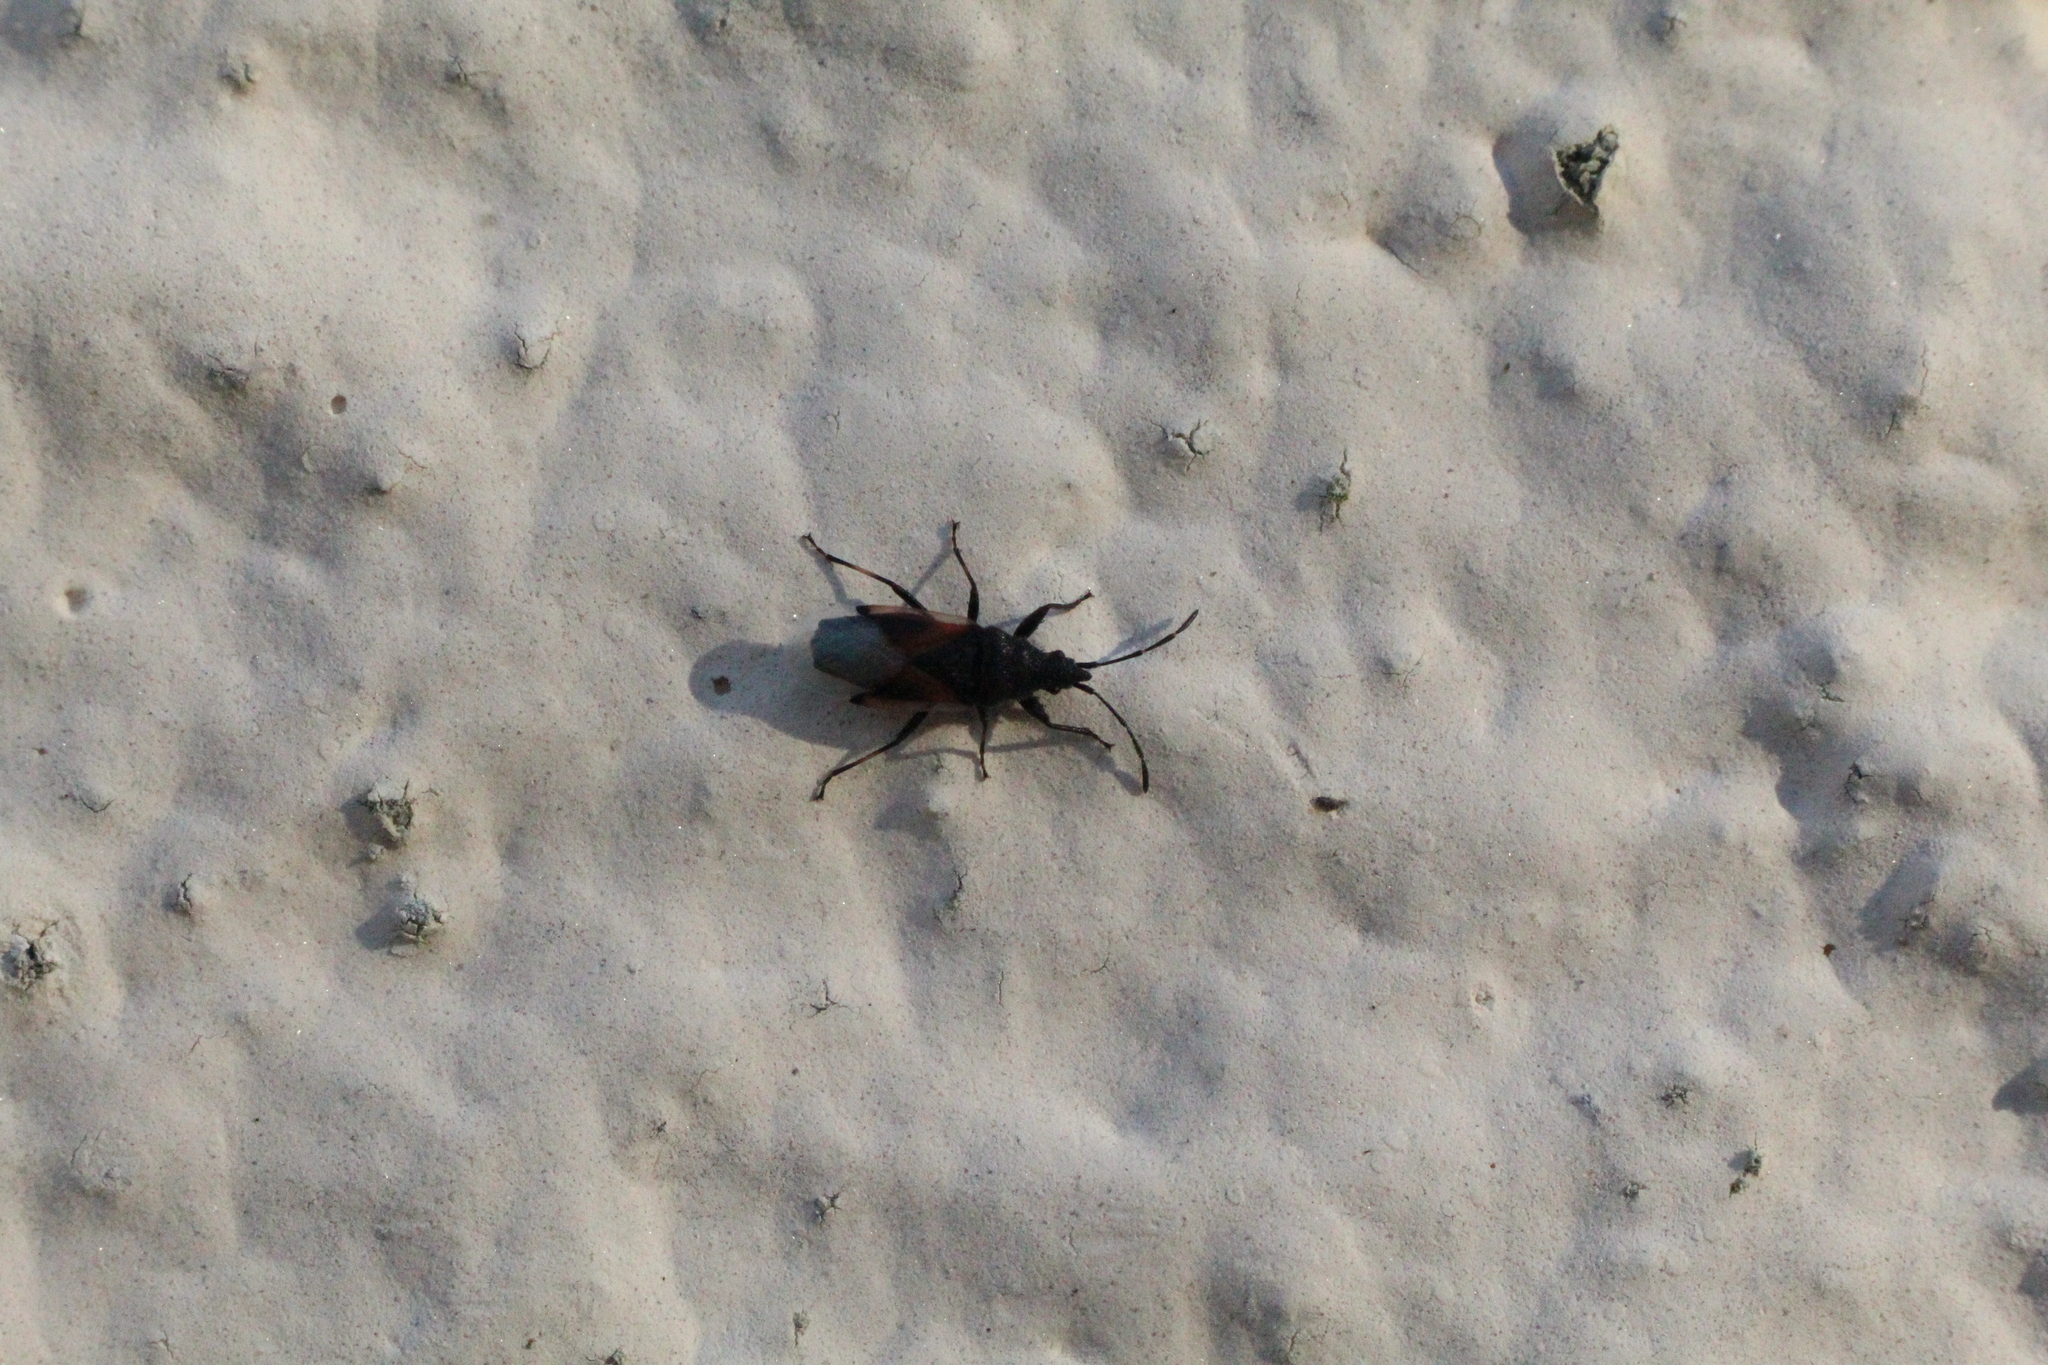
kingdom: Animalia
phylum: Arthropoda
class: Insecta
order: Hemiptera
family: Oxycarenidae
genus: Oxycarenus
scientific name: Oxycarenus lavaterae
